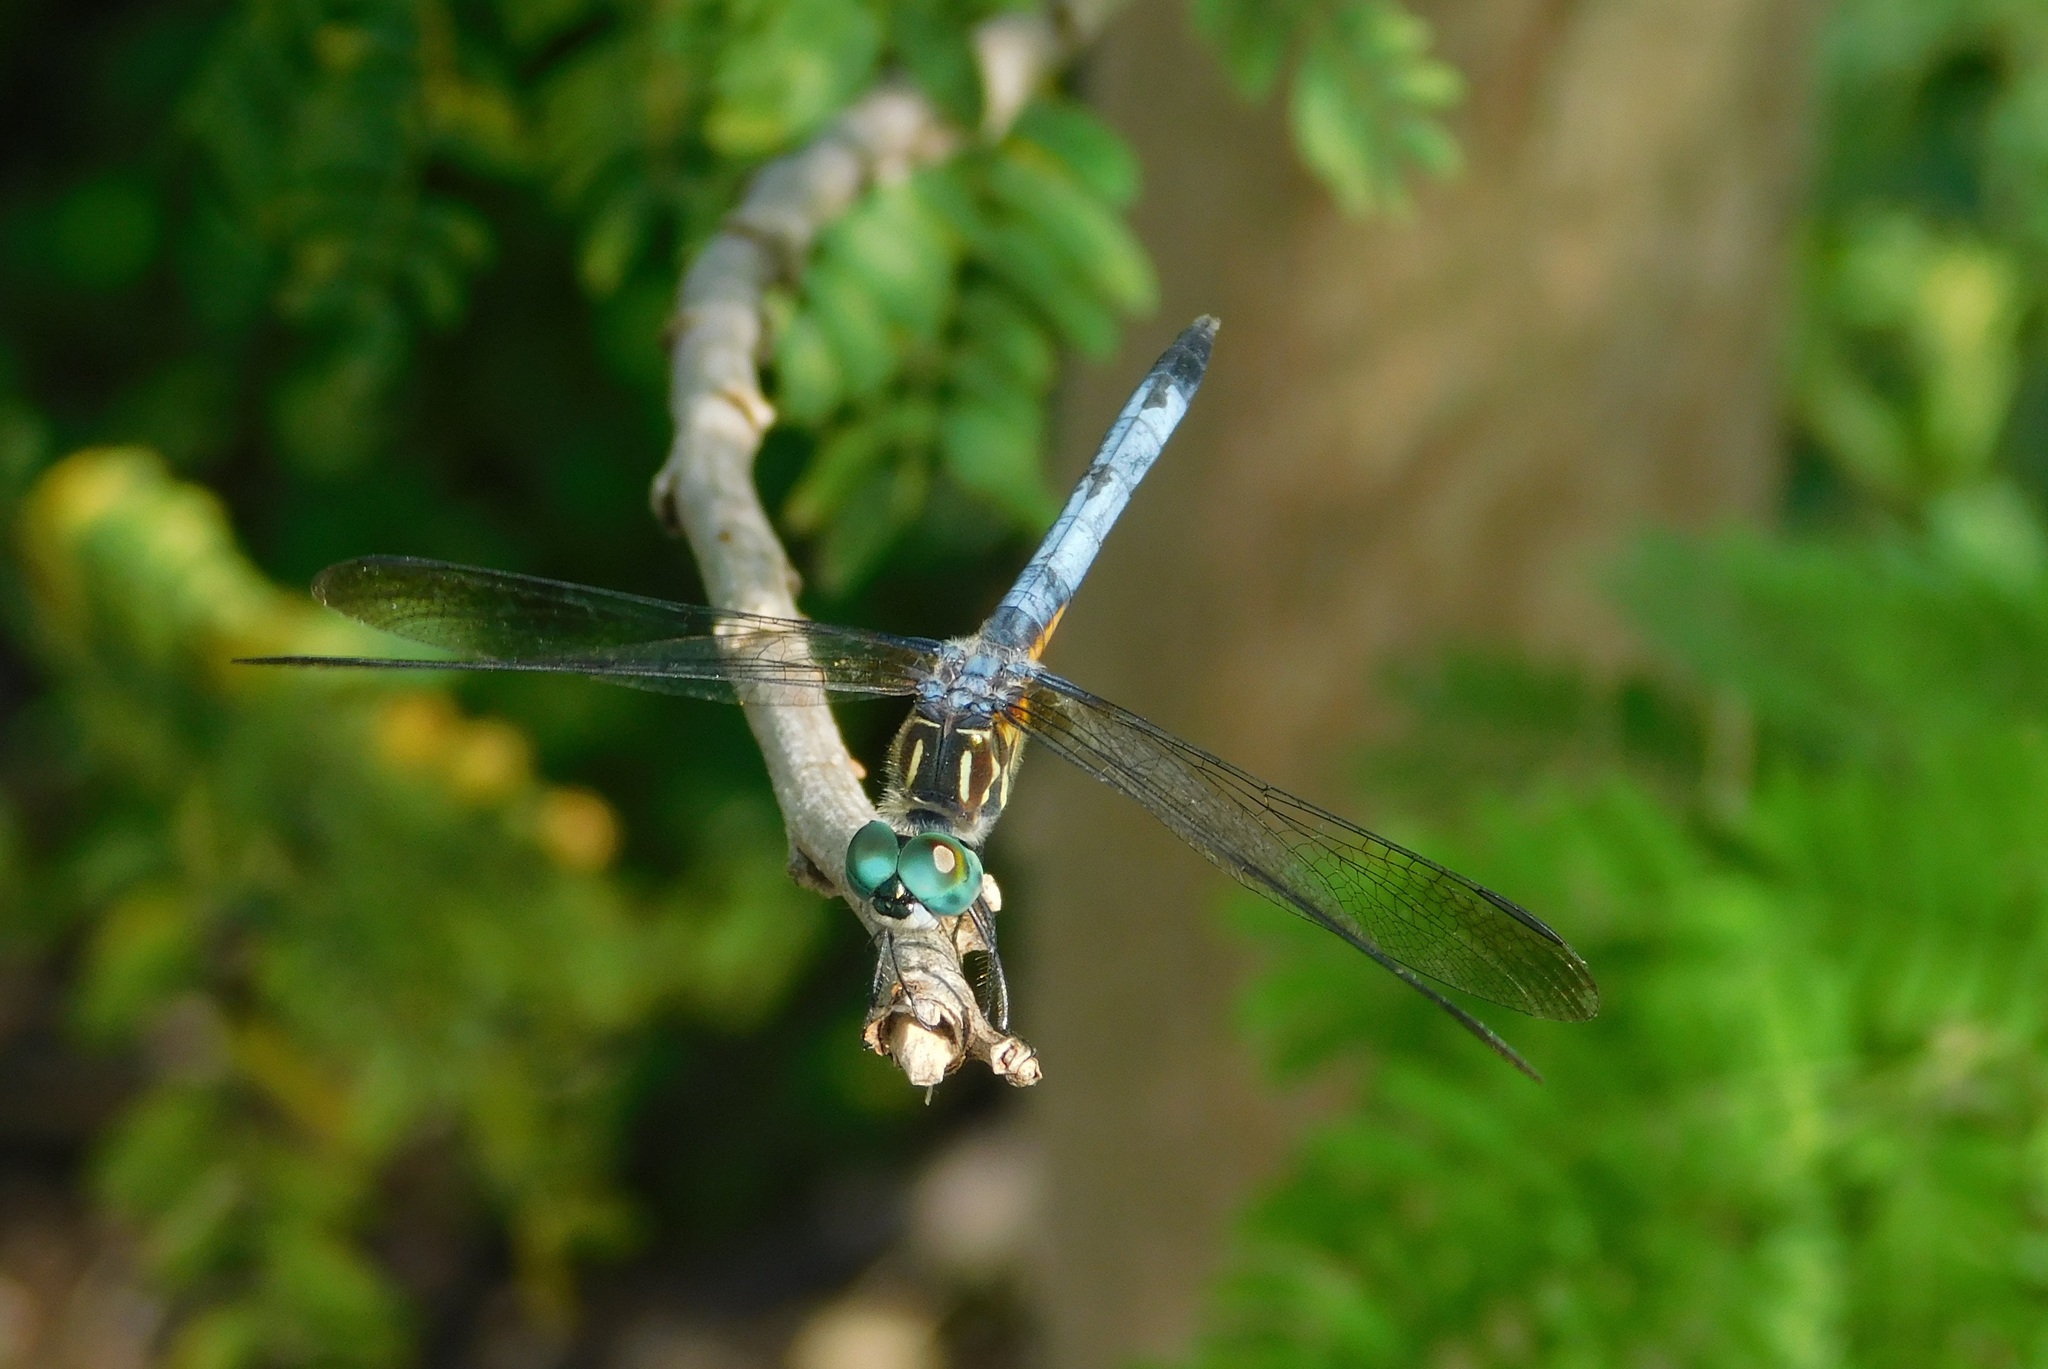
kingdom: Animalia
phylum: Arthropoda
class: Insecta
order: Odonata
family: Libellulidae
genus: Pachydiplax
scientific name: Pachydiplax longipennis
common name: Blue dasher
